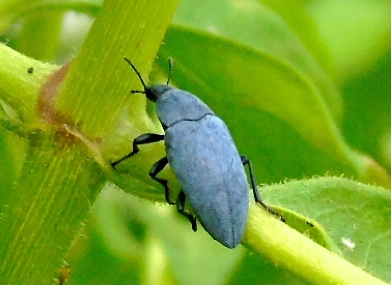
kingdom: Animalia
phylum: Arthropoda
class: Insecta
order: Coleoptera
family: Tenebrionidae
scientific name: Tenebrionidae
